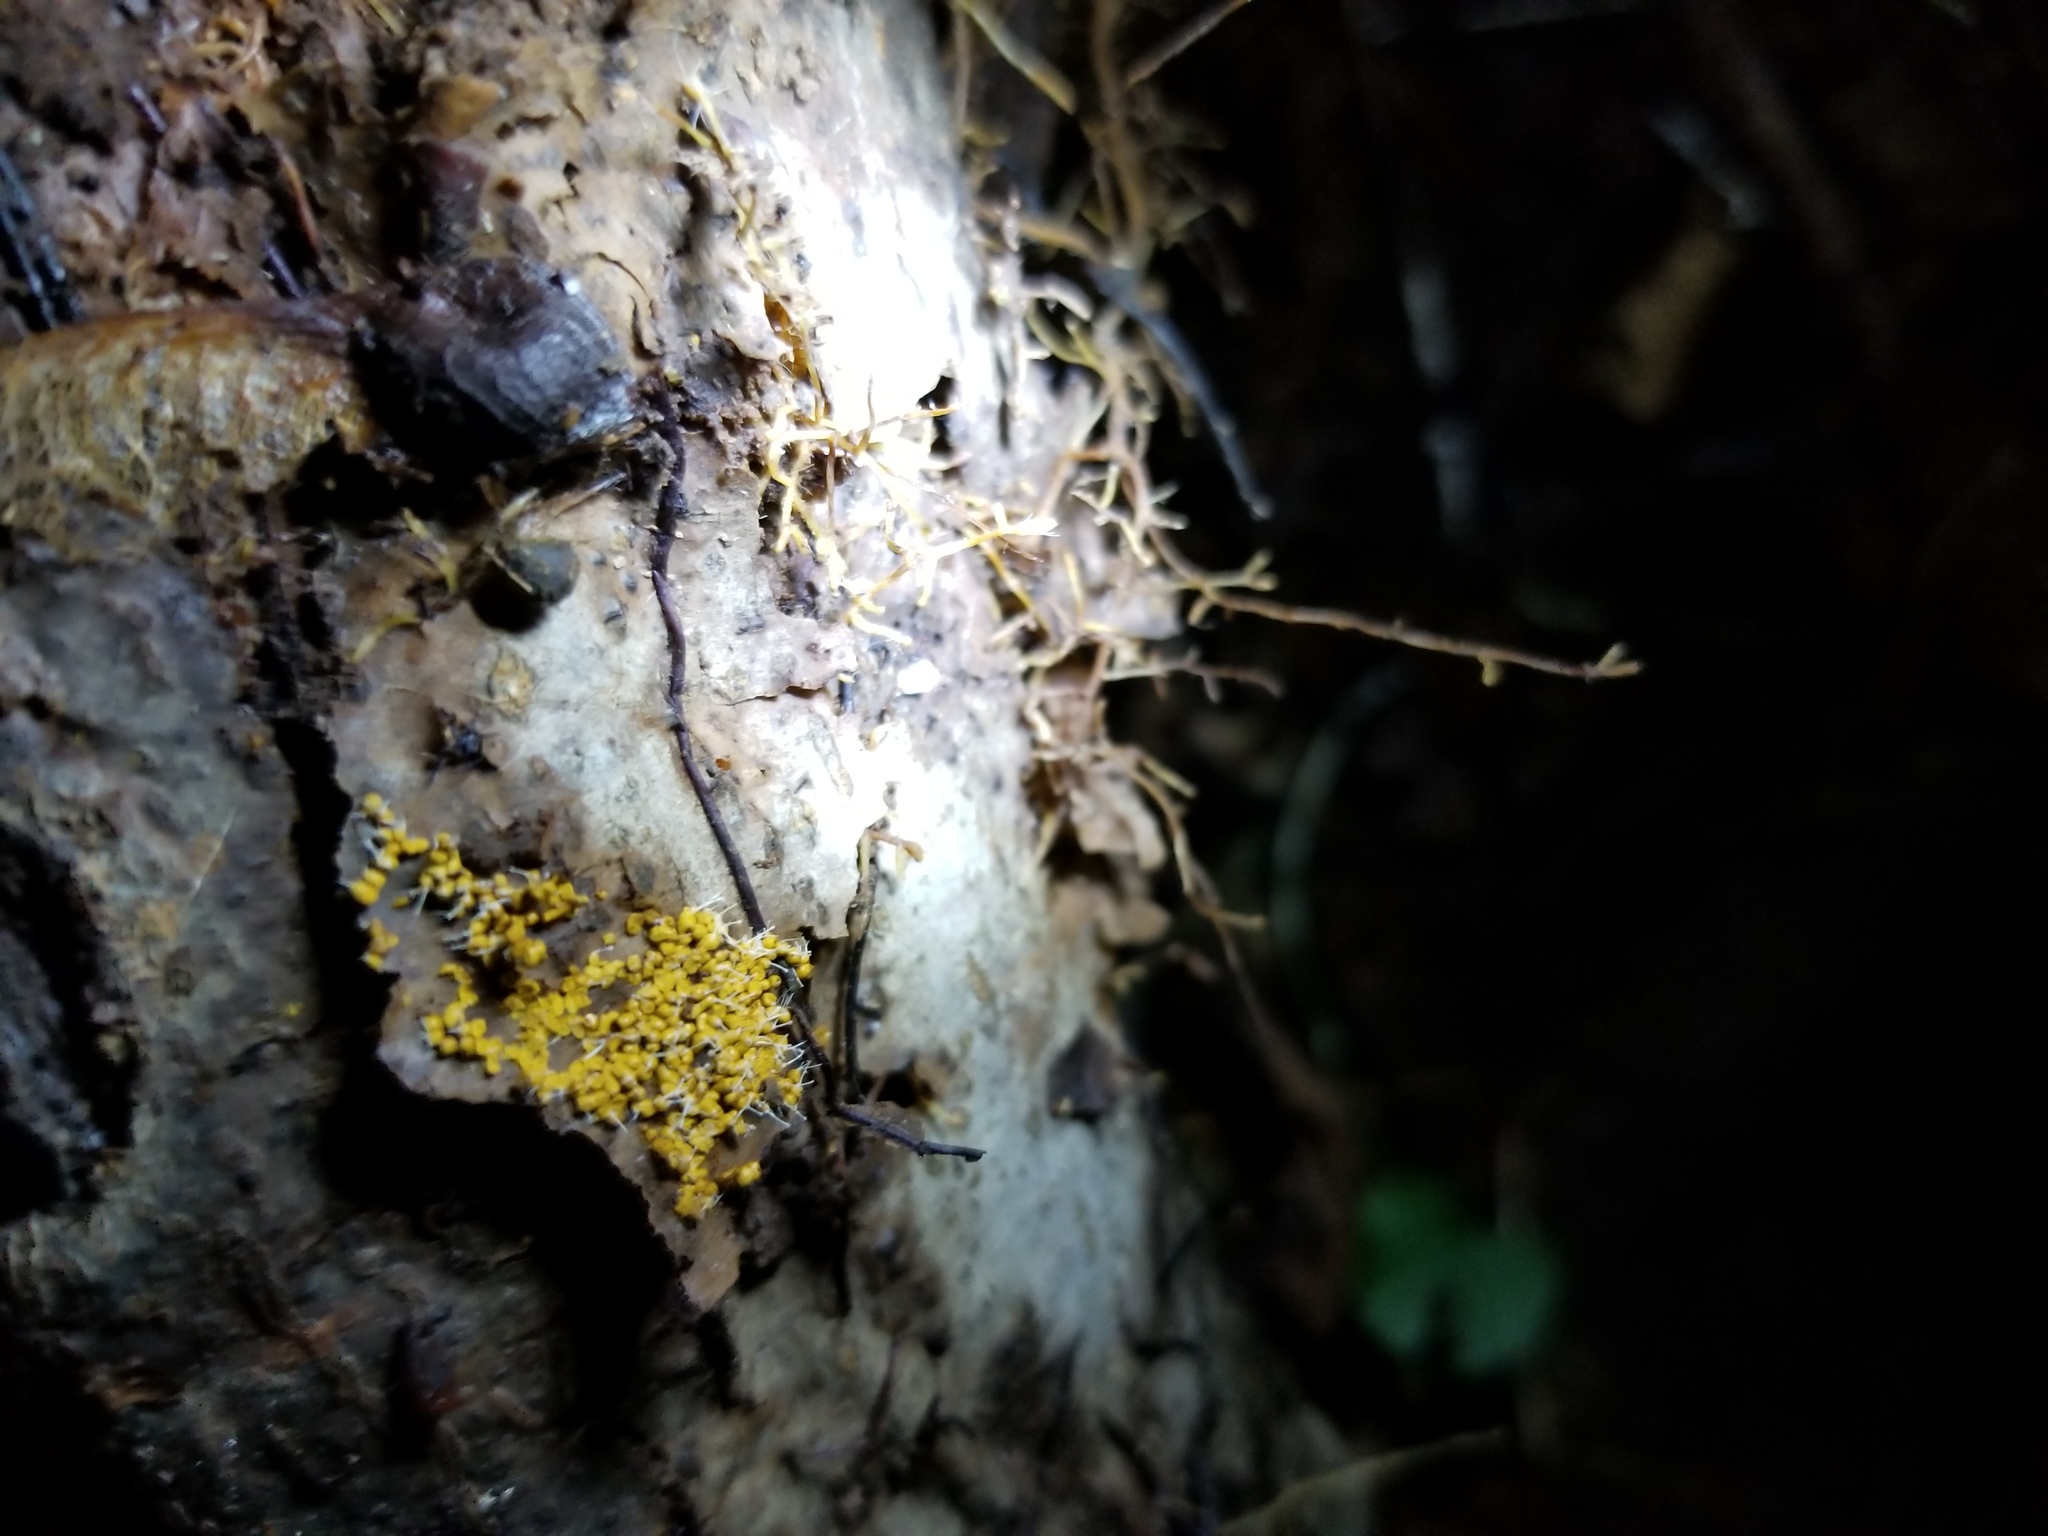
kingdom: Fungi
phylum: Ascomycota
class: Sordariomycetes
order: Hypocreales
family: Ophiocordycipitaceae
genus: Polycephalomyces
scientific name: Polycephalomyces tomentosus
